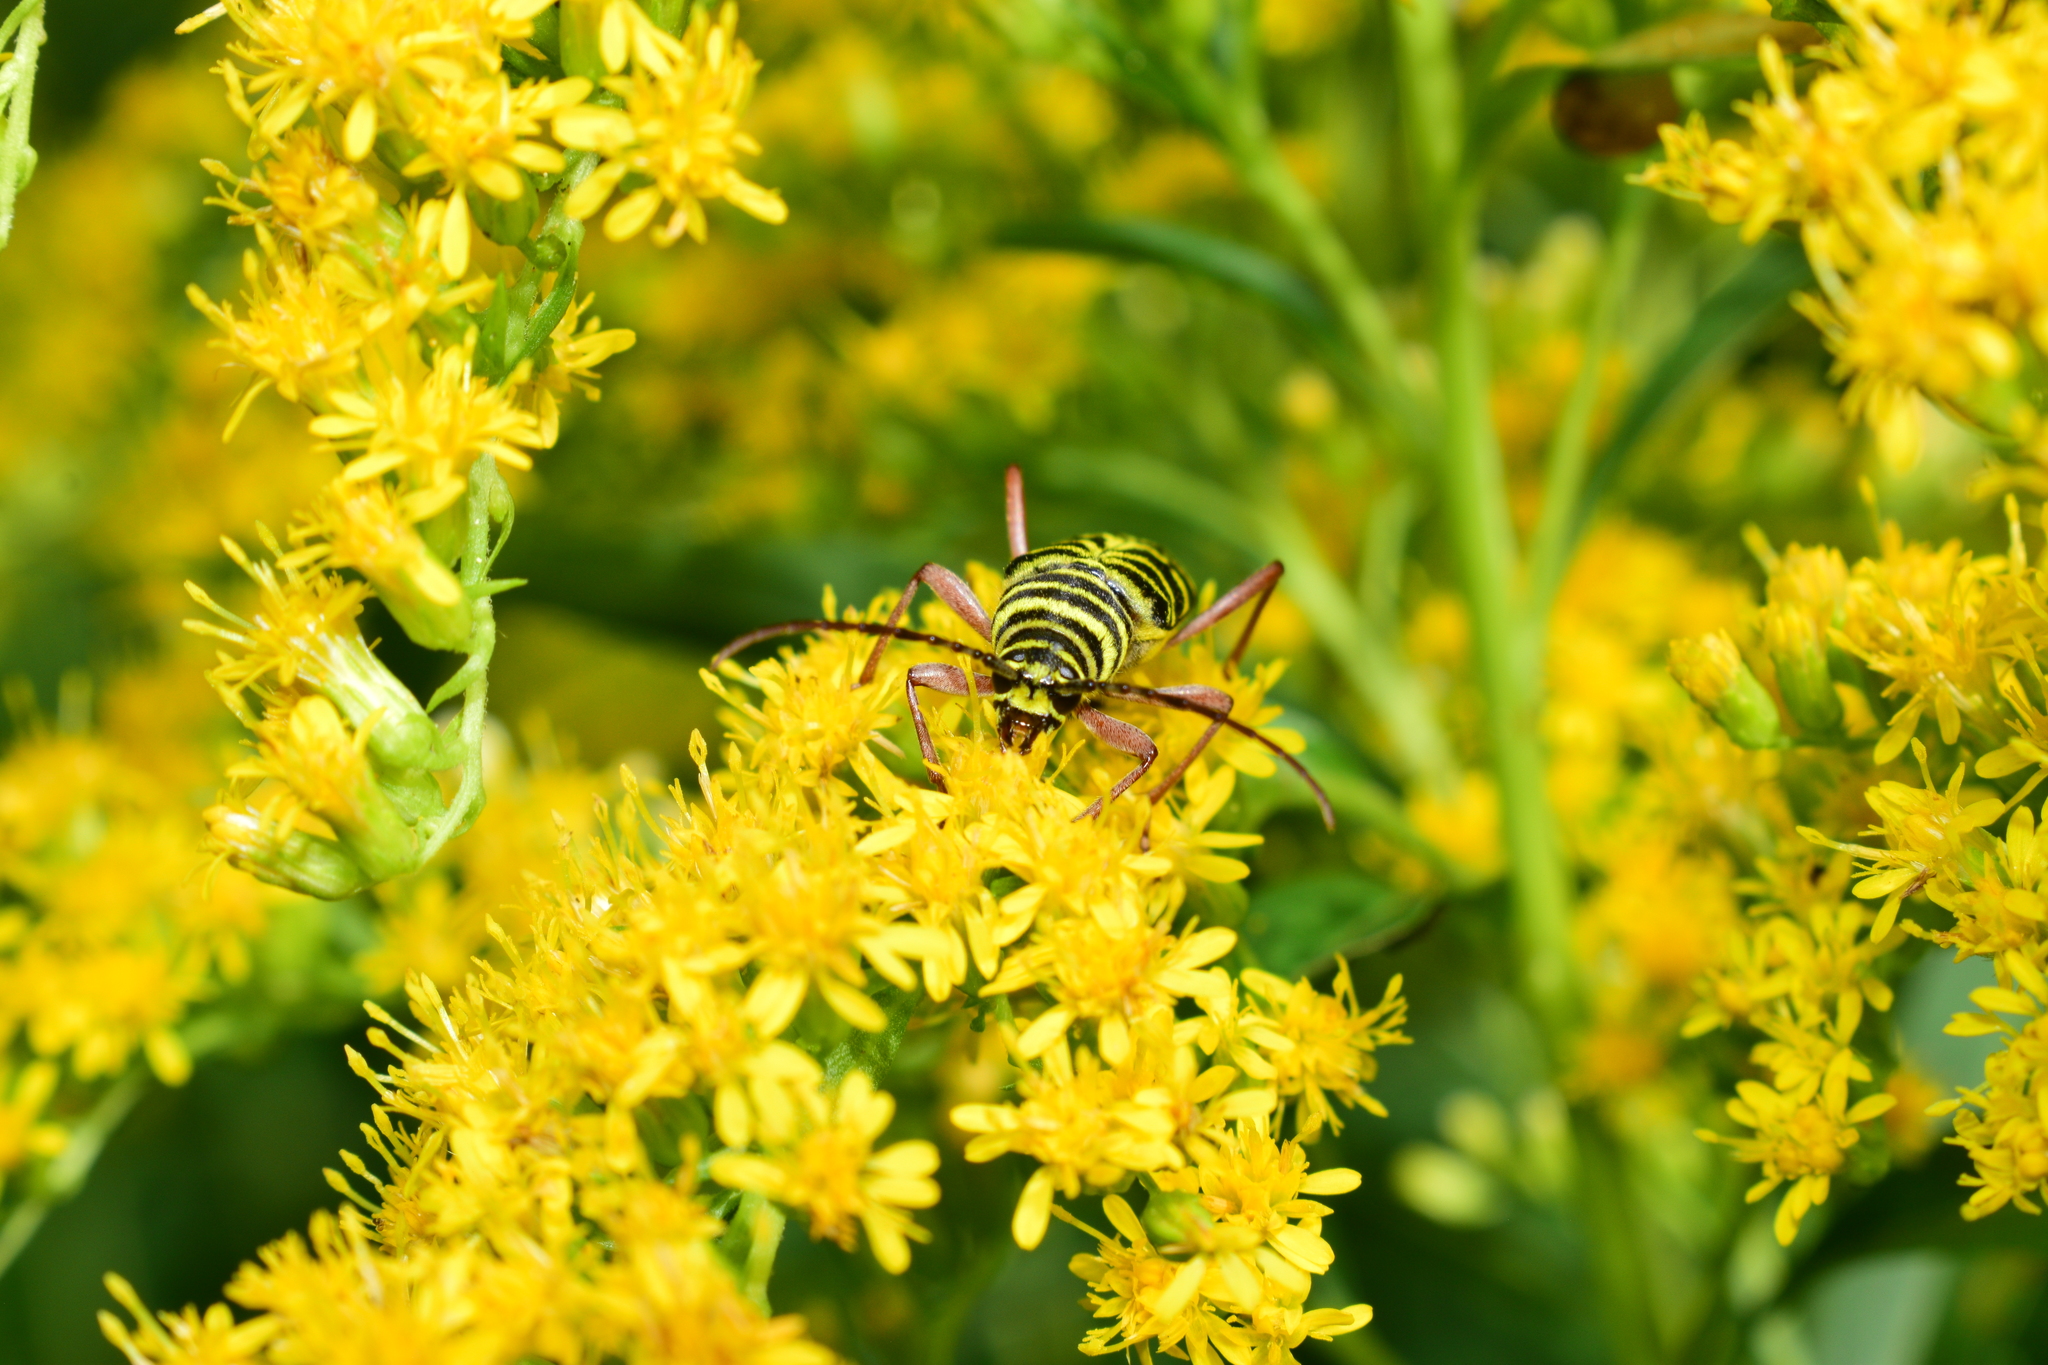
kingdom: Animalia
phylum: Arthropoda
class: Insecta
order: Coleoptera
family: Cerambycidae
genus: Megacyllene
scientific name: Megacyllene robiniae
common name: Locust borer
